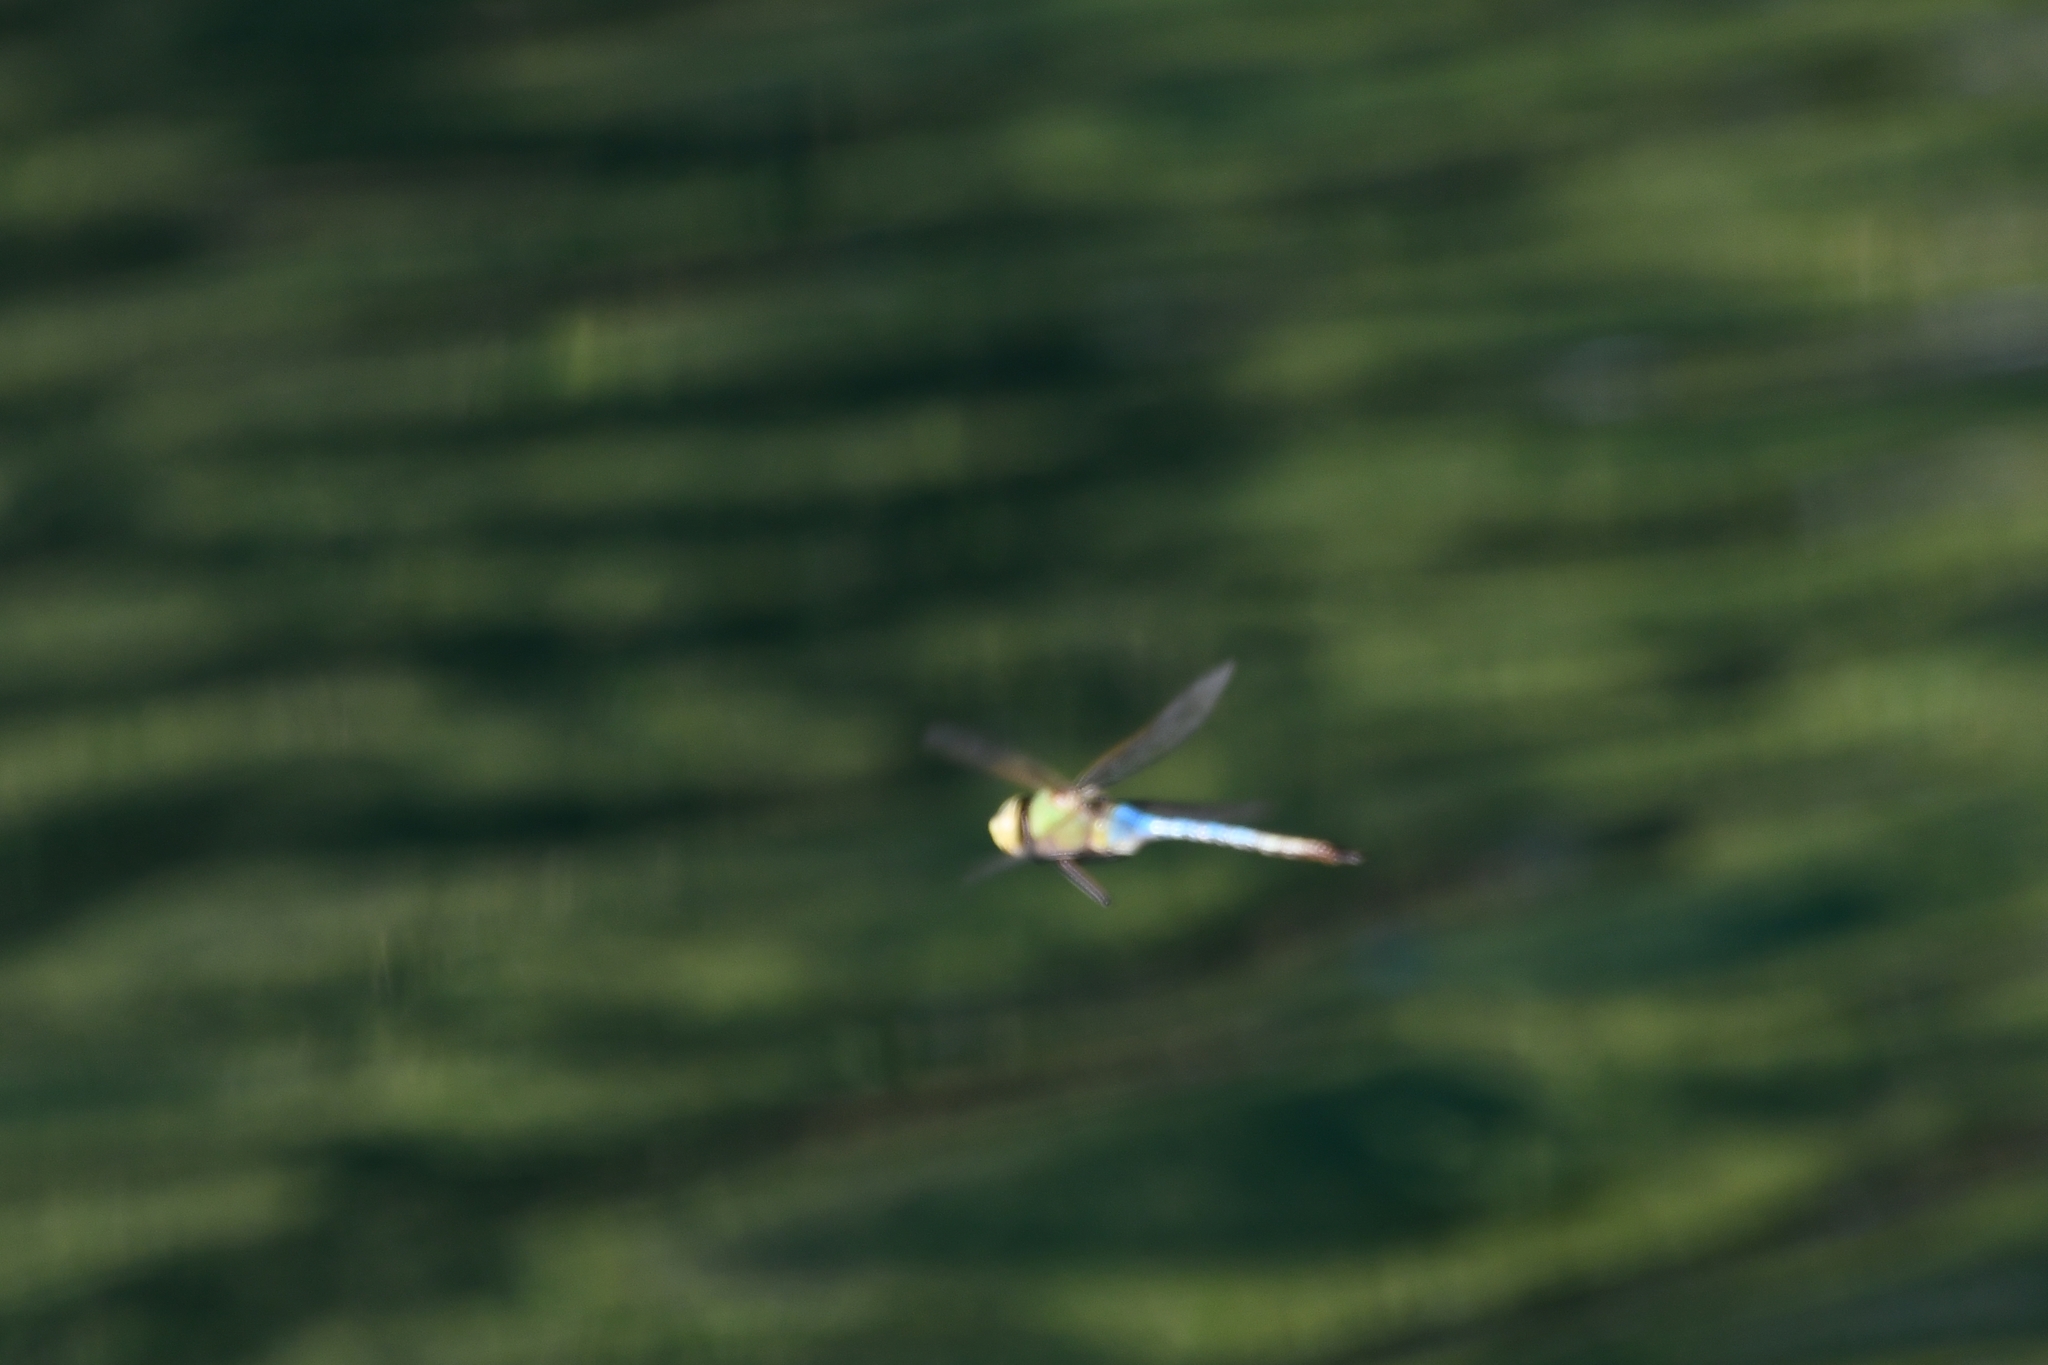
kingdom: Animalia
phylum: Arthropoda
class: Insecta
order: Odonata
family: Aeshnidae
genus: Anax
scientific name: Anax junius
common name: Common green darner
